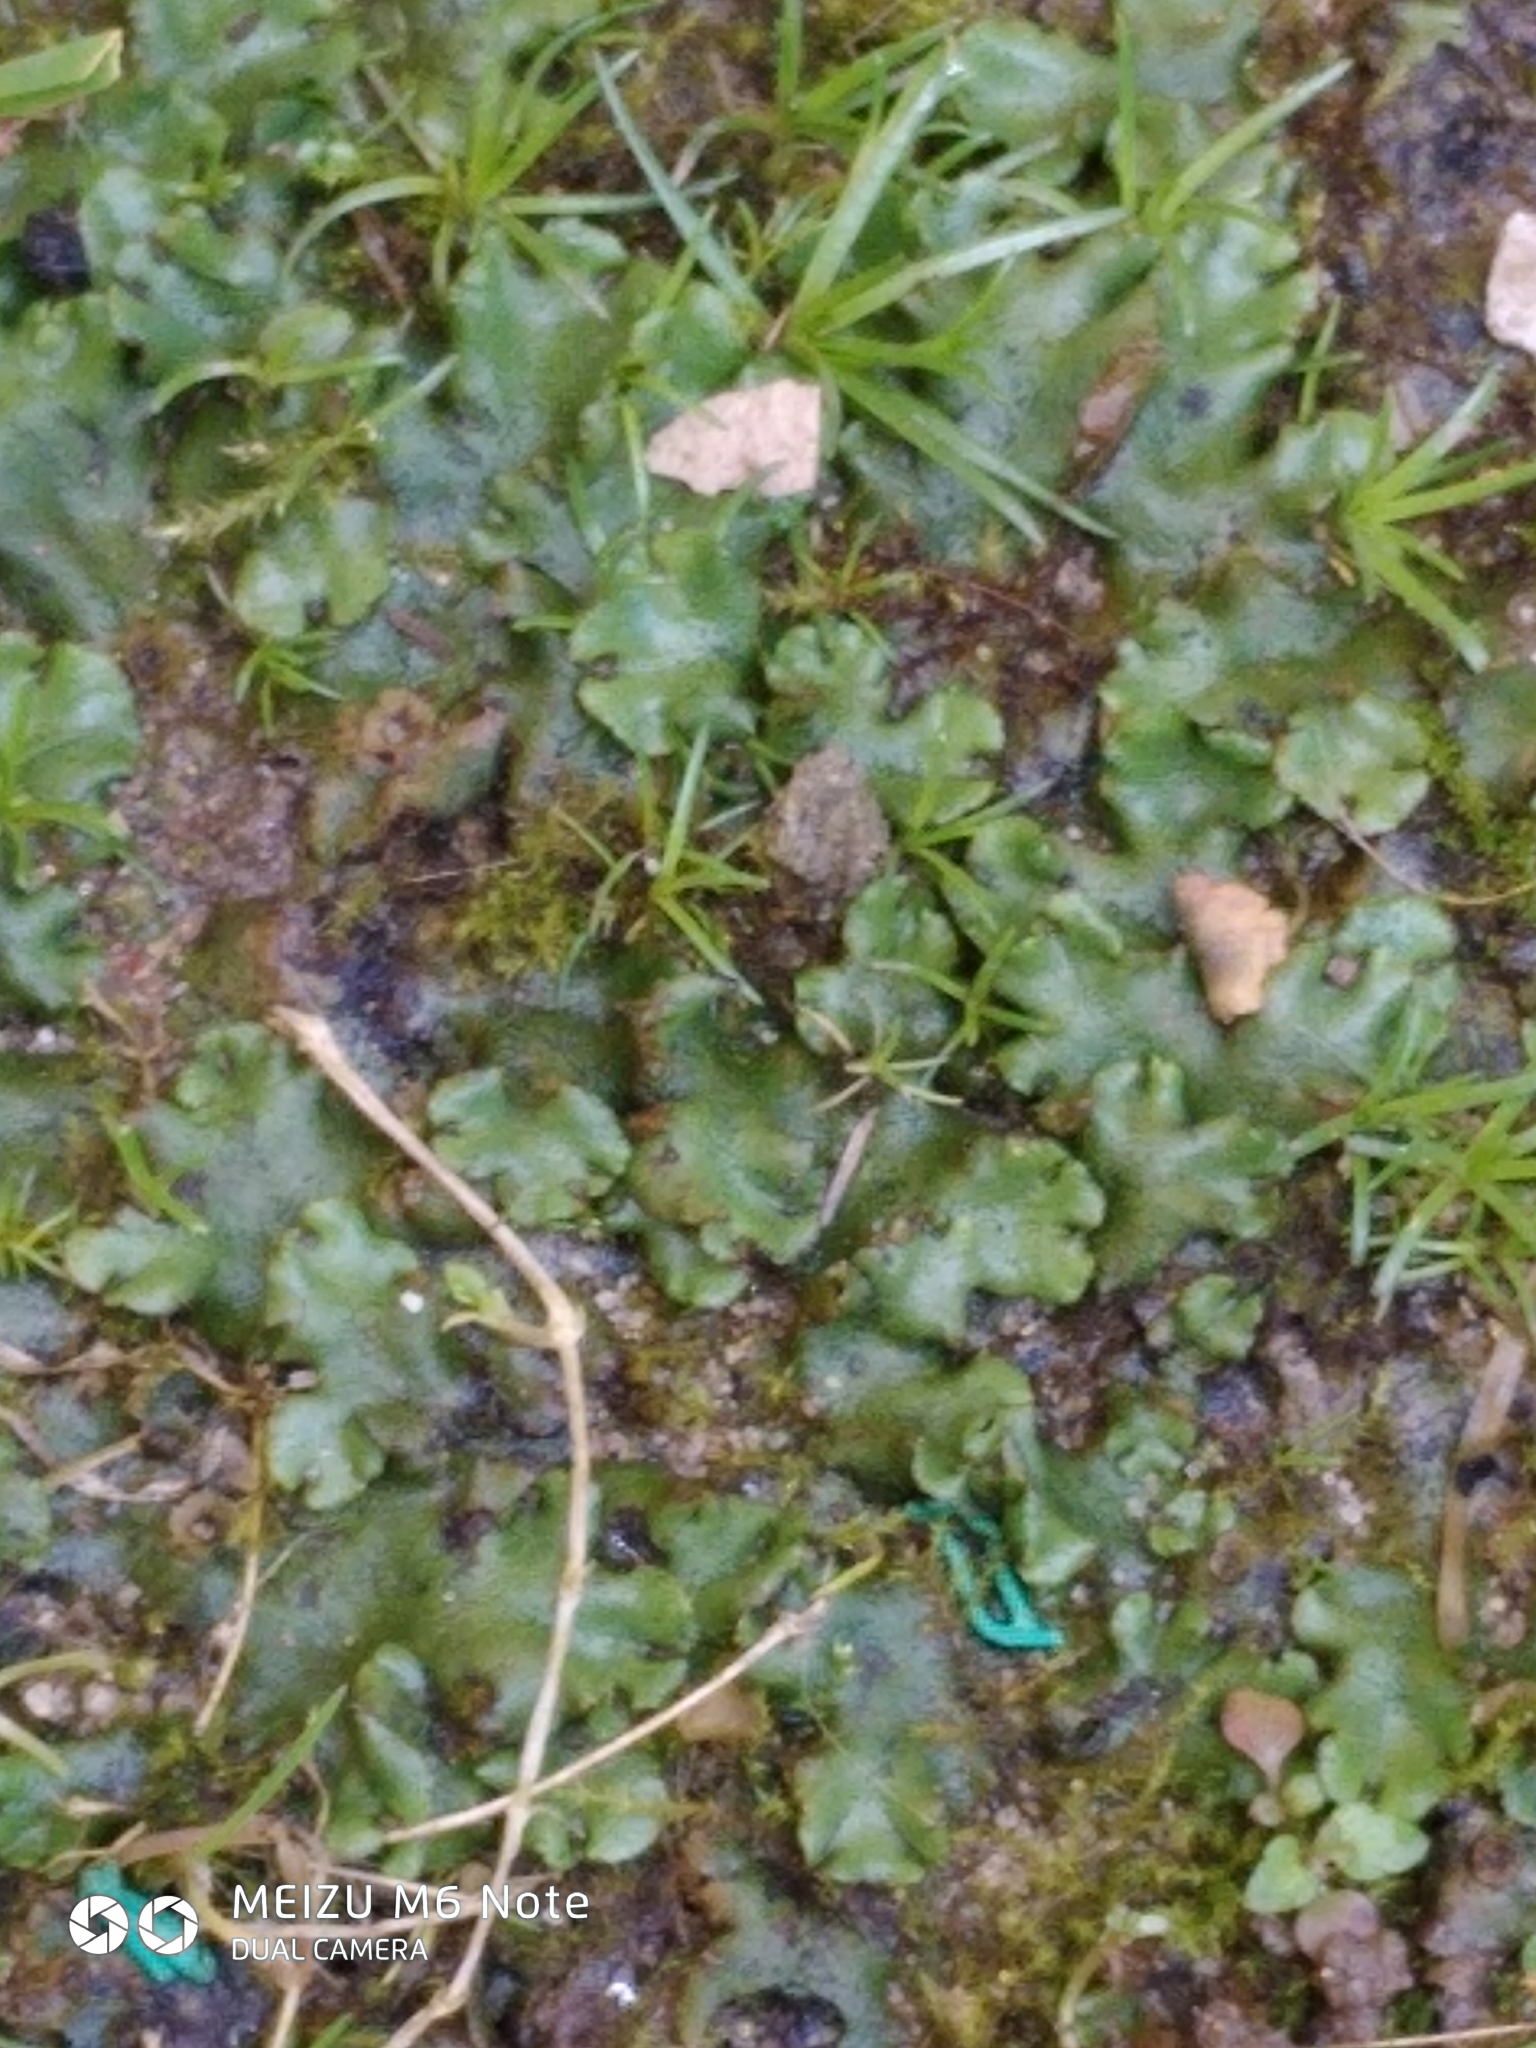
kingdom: Plantae
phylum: Marchantiophyta
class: Marchantiopsida
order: Marchantiales
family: Marchantiaceae
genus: Marchantia
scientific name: Marchantia polymorpha
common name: Common liverwort
